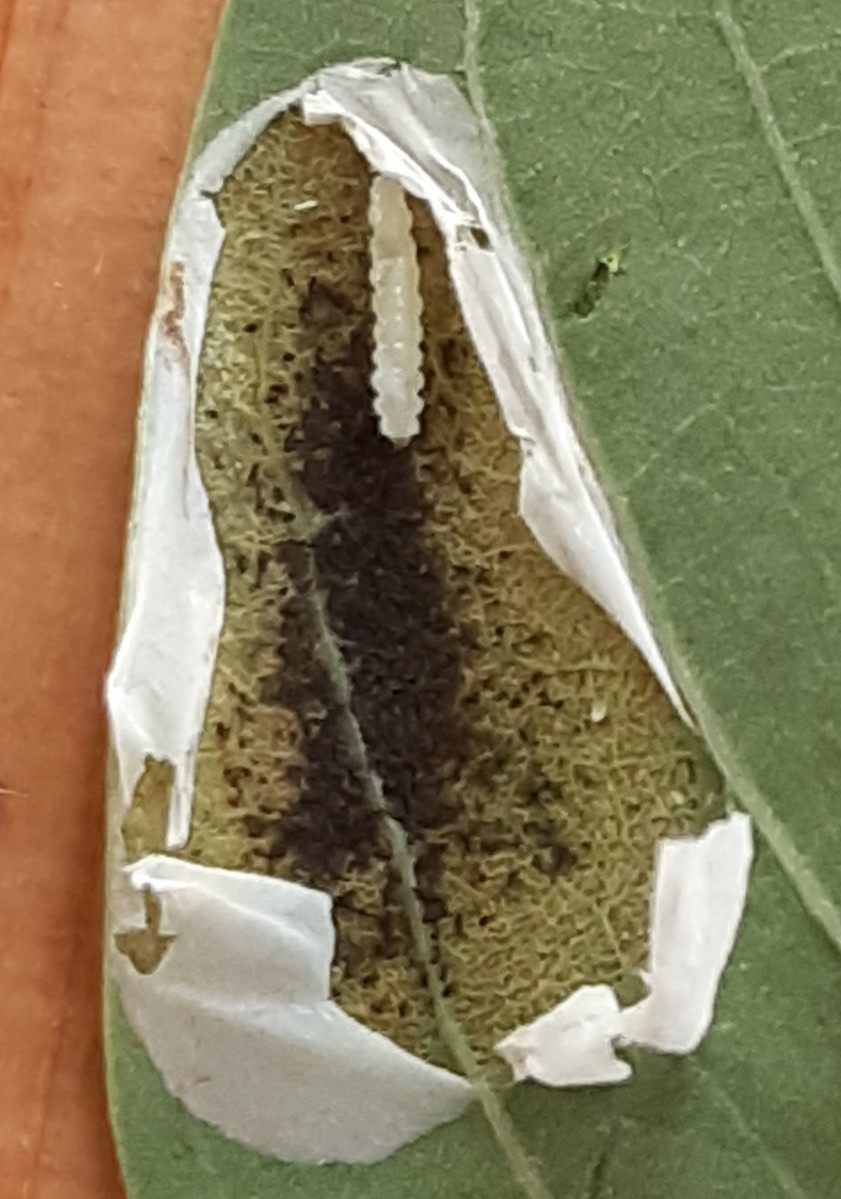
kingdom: Animalia
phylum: Arthropoda
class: Insecta
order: Lepidoptera
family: Gracillariidae
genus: Macrosaccus
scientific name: Macrosaccus robiniella
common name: Leaf blotch miner moth
